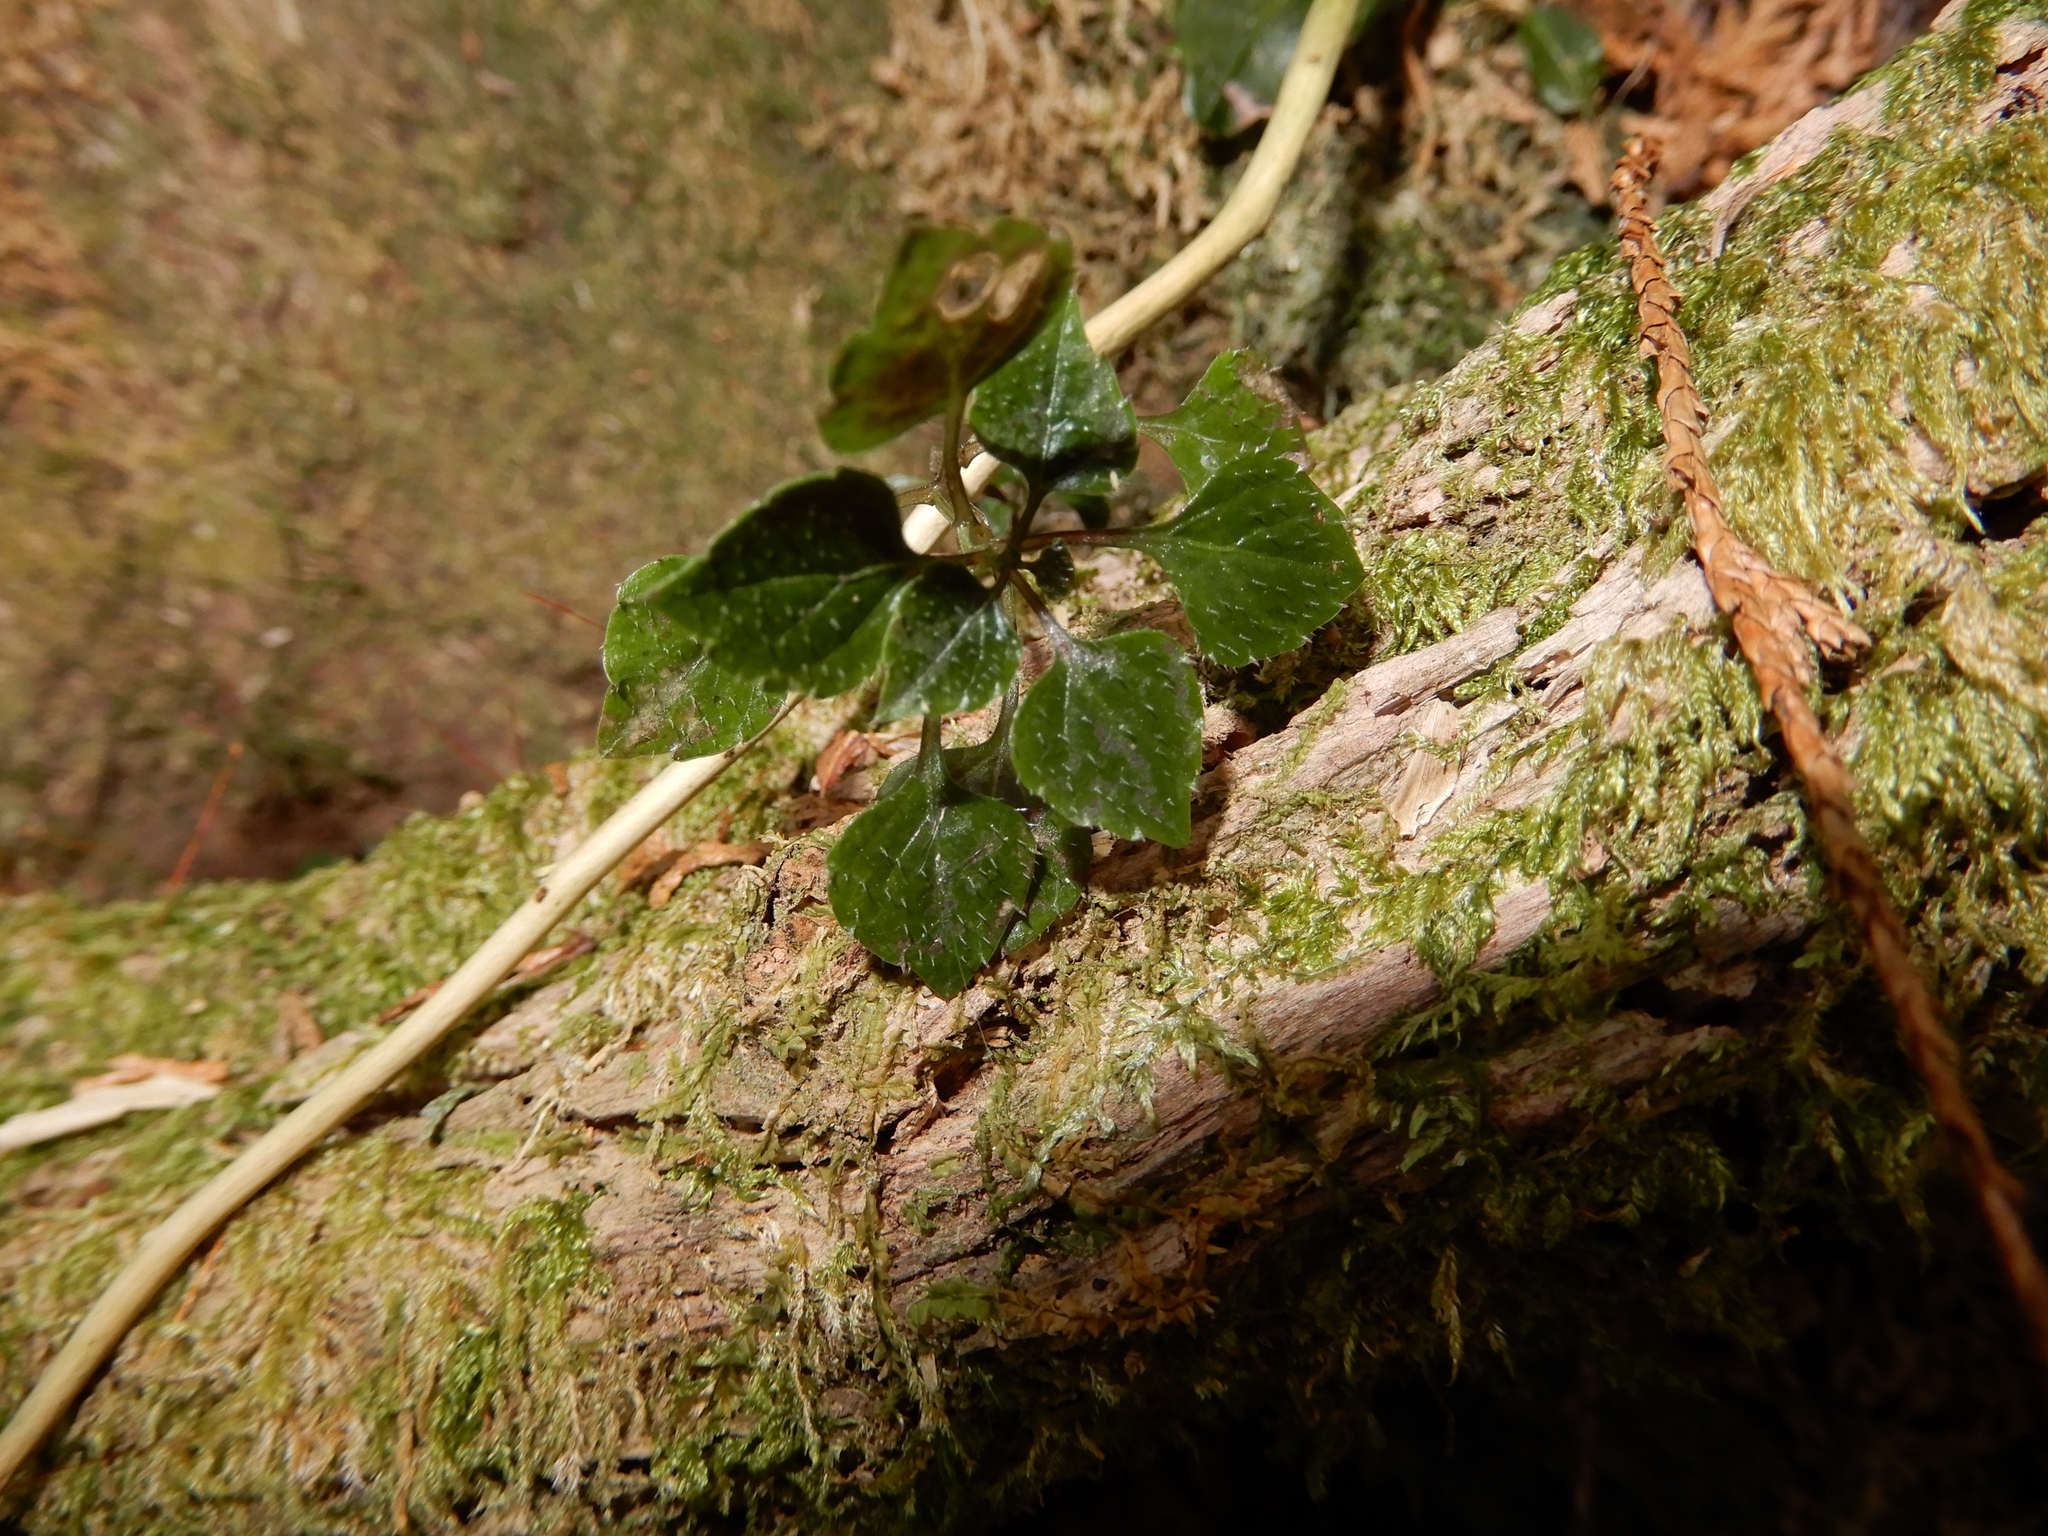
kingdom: Plantae
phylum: Tracheophyta
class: Magnoliopsida
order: Asterales
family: Campanulaceae
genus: Peracarpa
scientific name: Peracarpa carnosa
